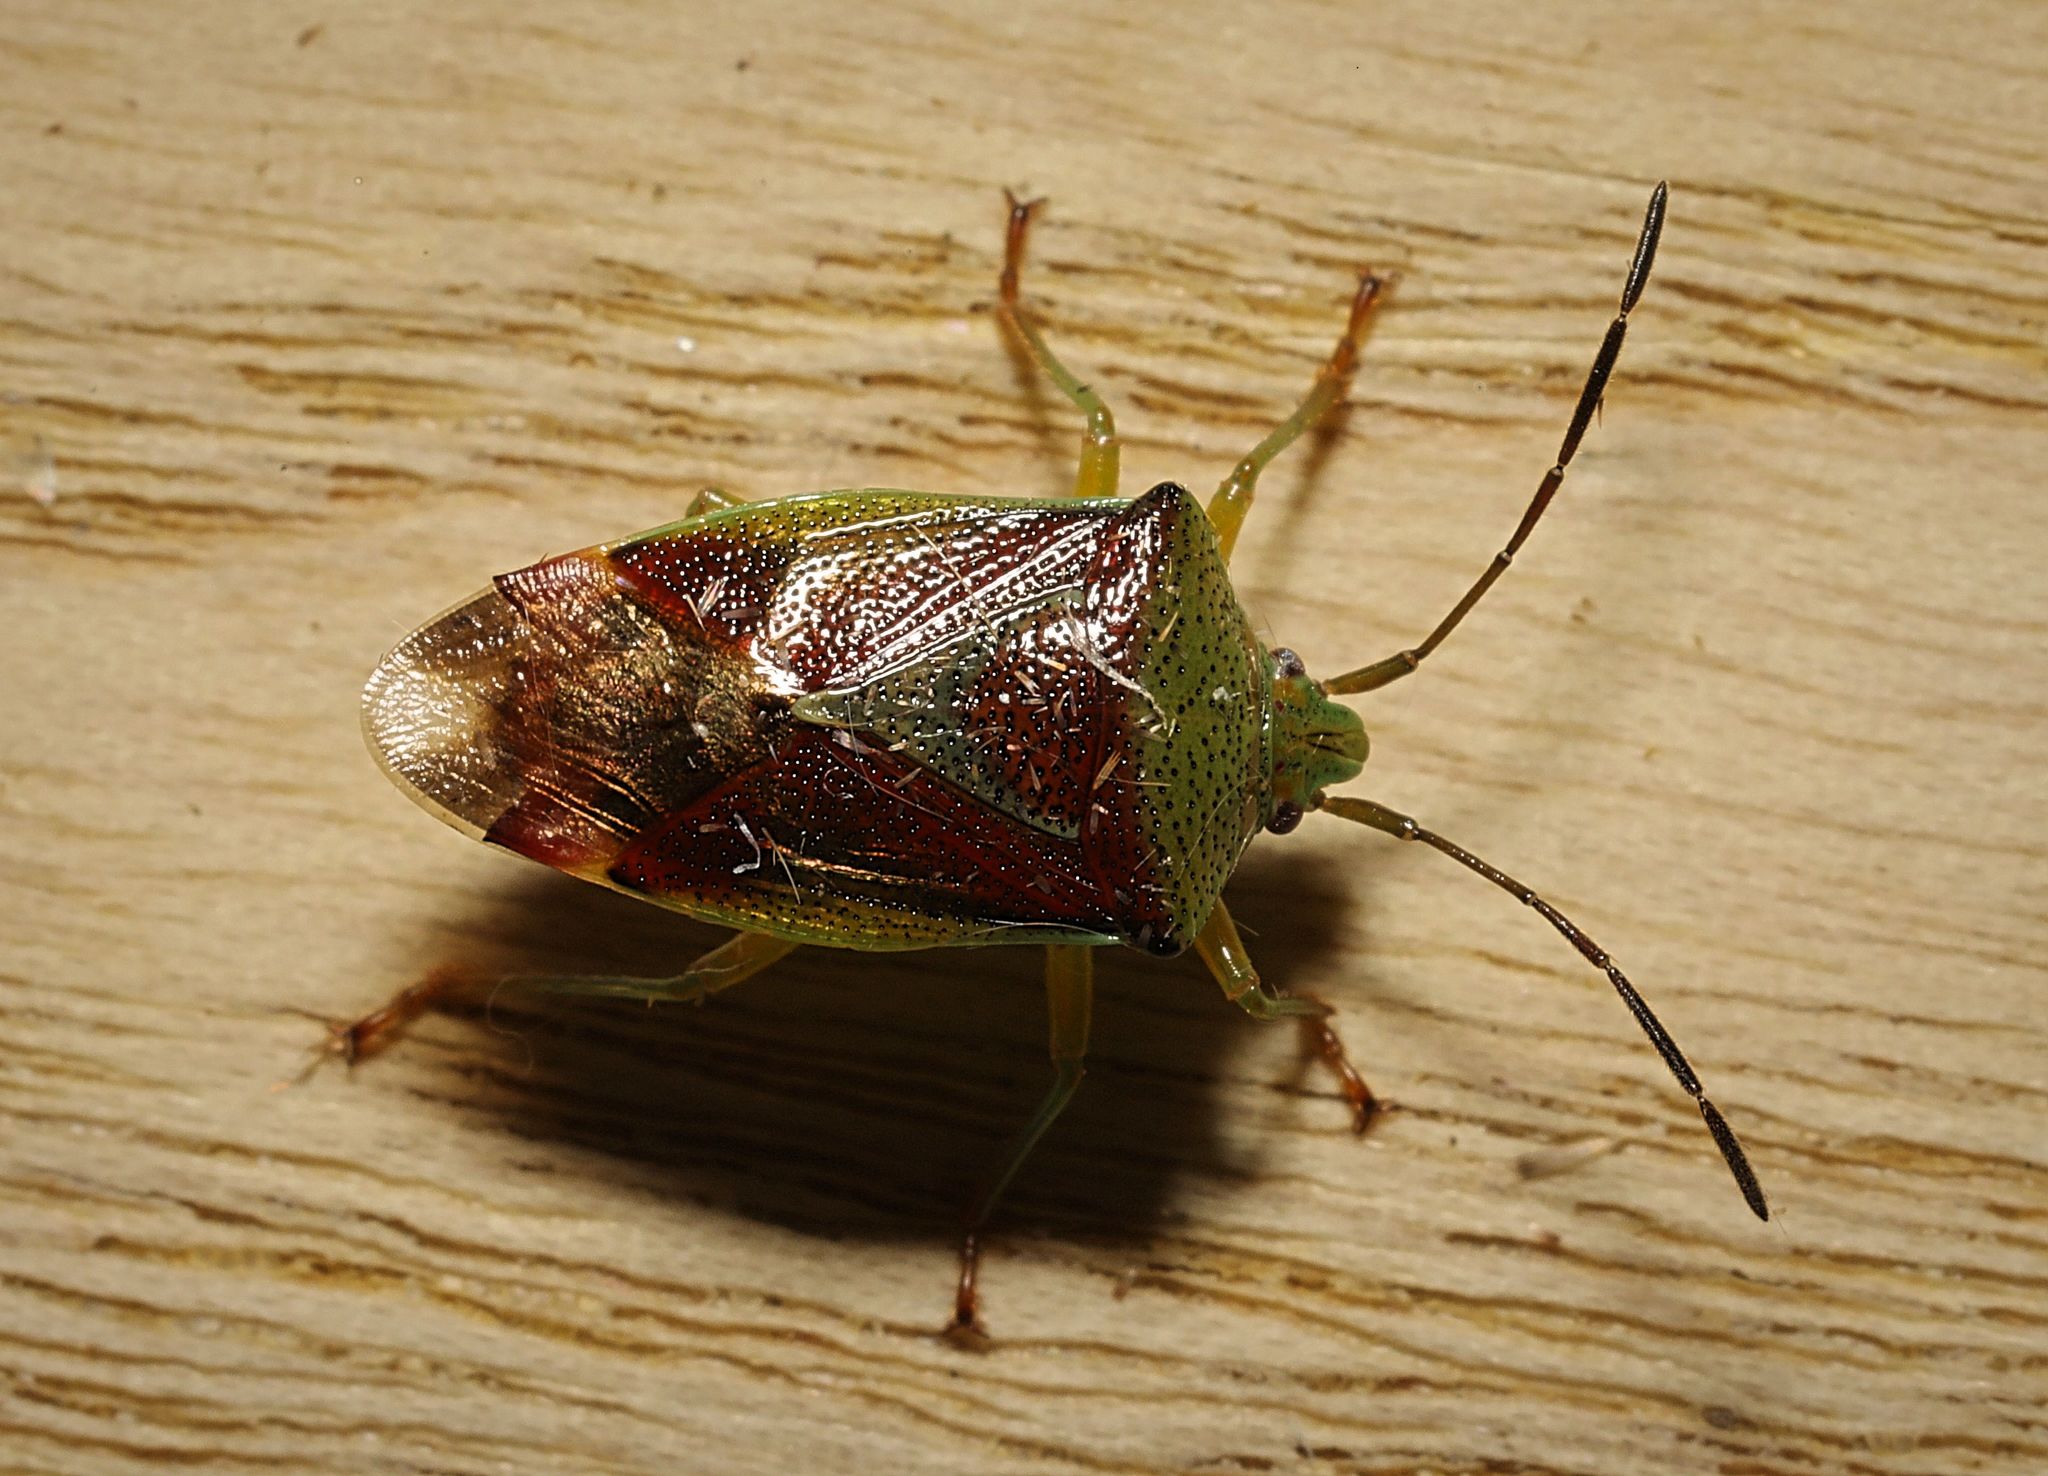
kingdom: Animalia
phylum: Arthropoda
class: Insecta
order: Hemiptera
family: Acanthosomatidae
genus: Elasmostethus
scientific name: Elasmostethus interstinctus
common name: Birch shieldbug
